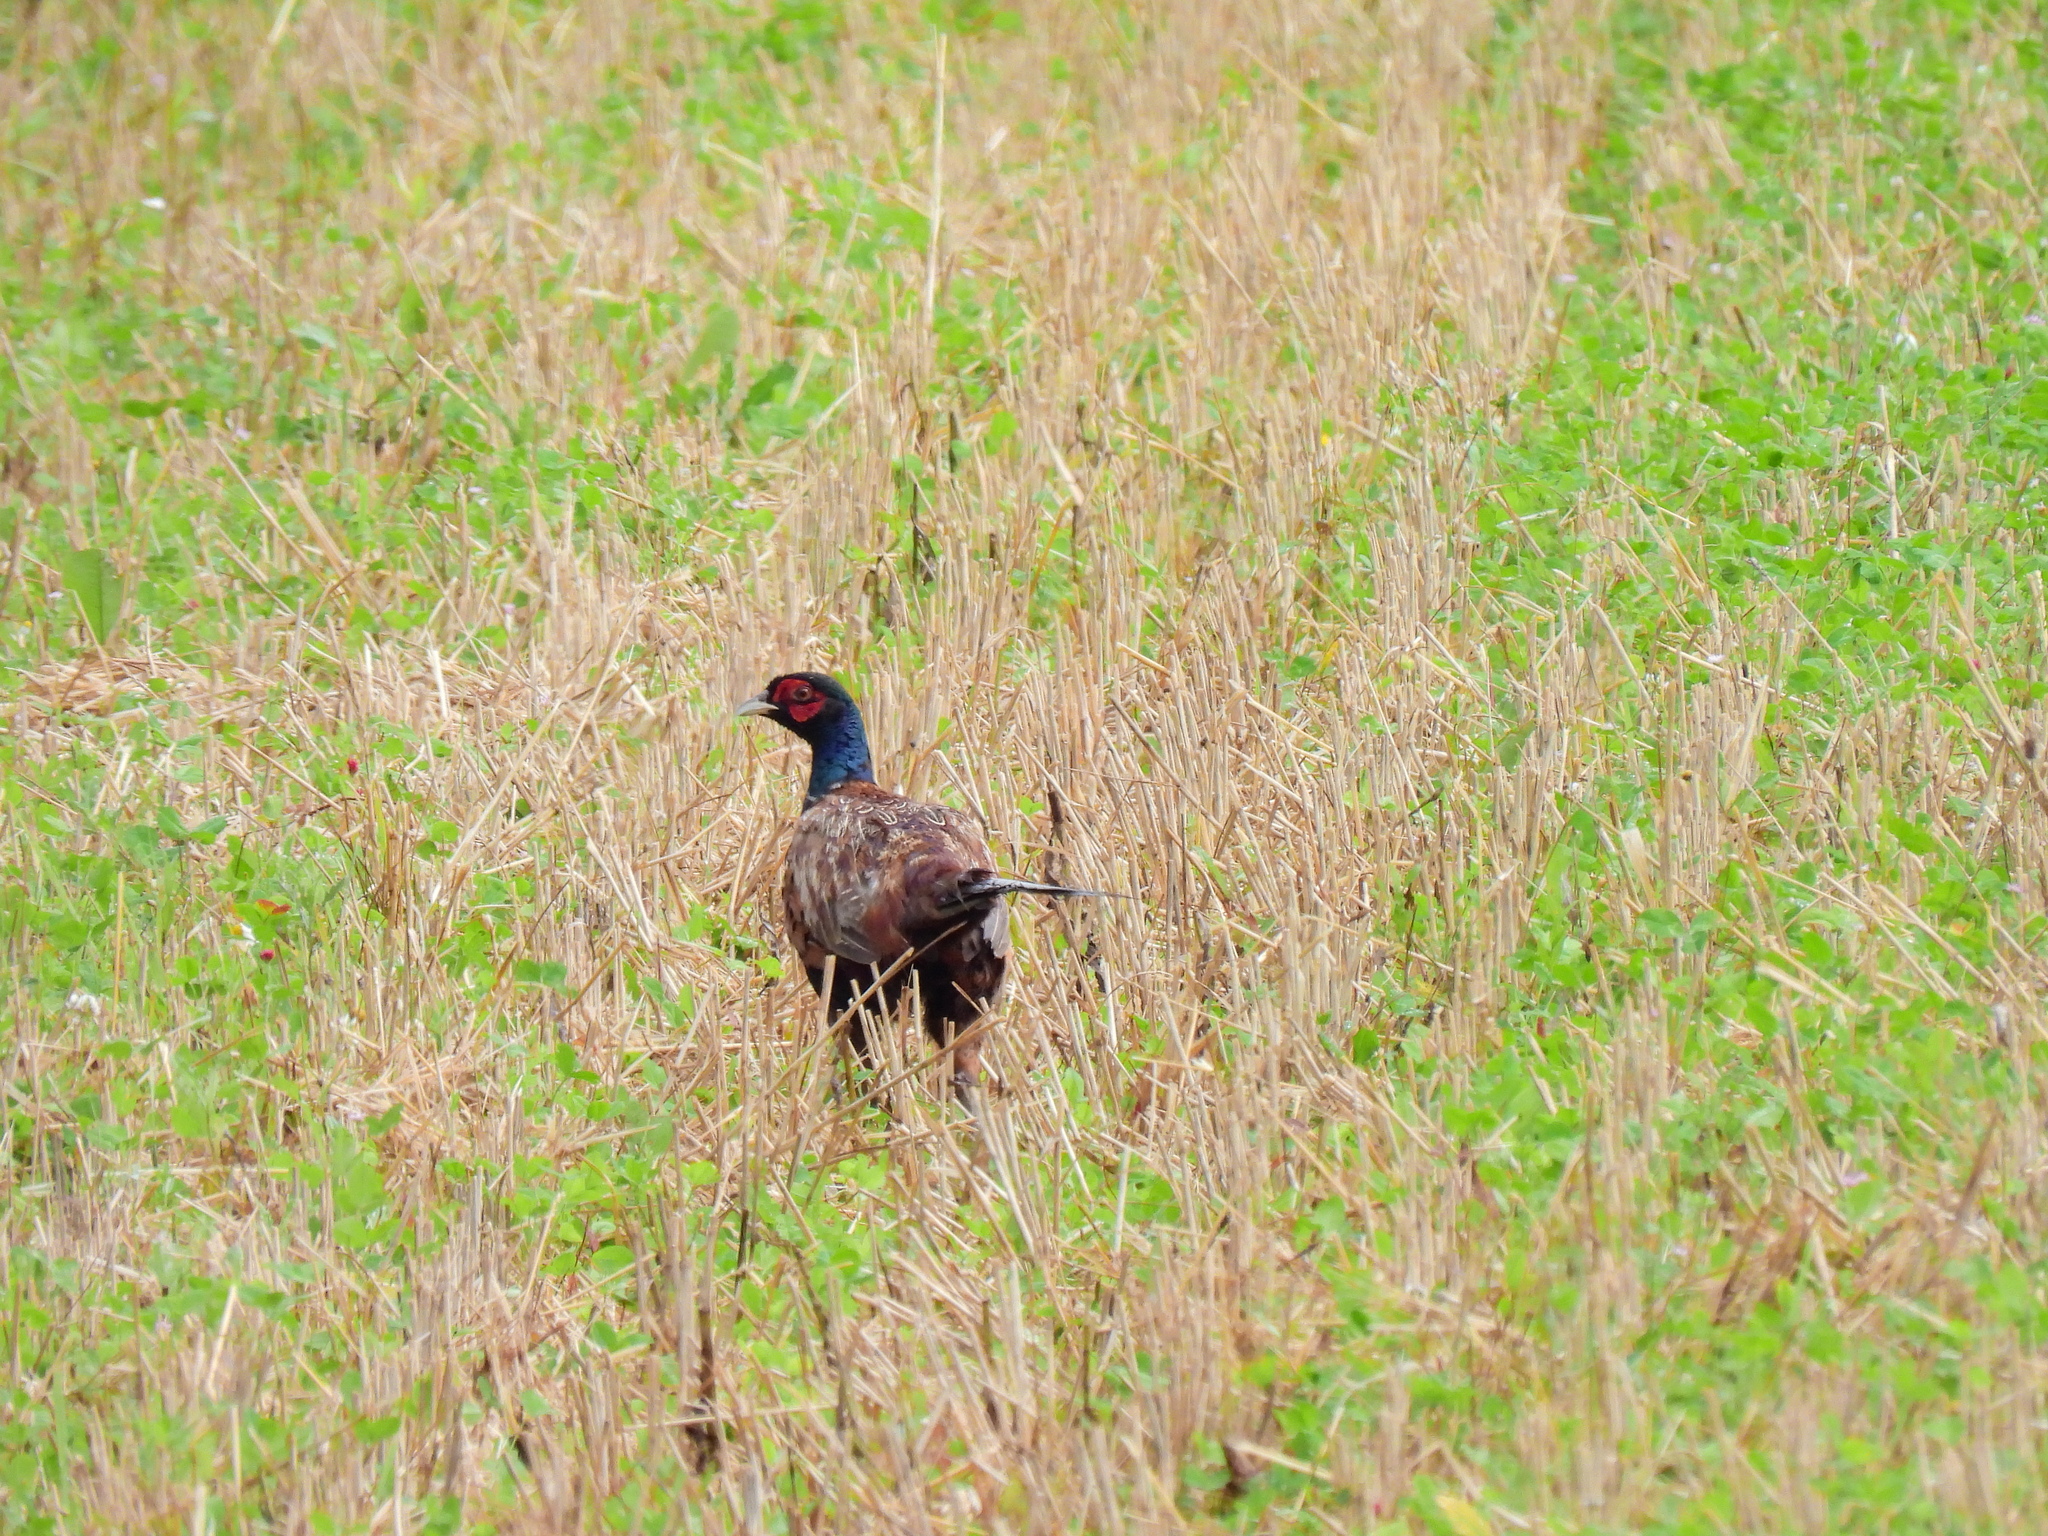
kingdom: Animalia
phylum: Chordata
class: Aves
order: Galliformes
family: Phasianidae
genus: Phasianus
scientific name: Phasianus colchicus
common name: Common pheasant
